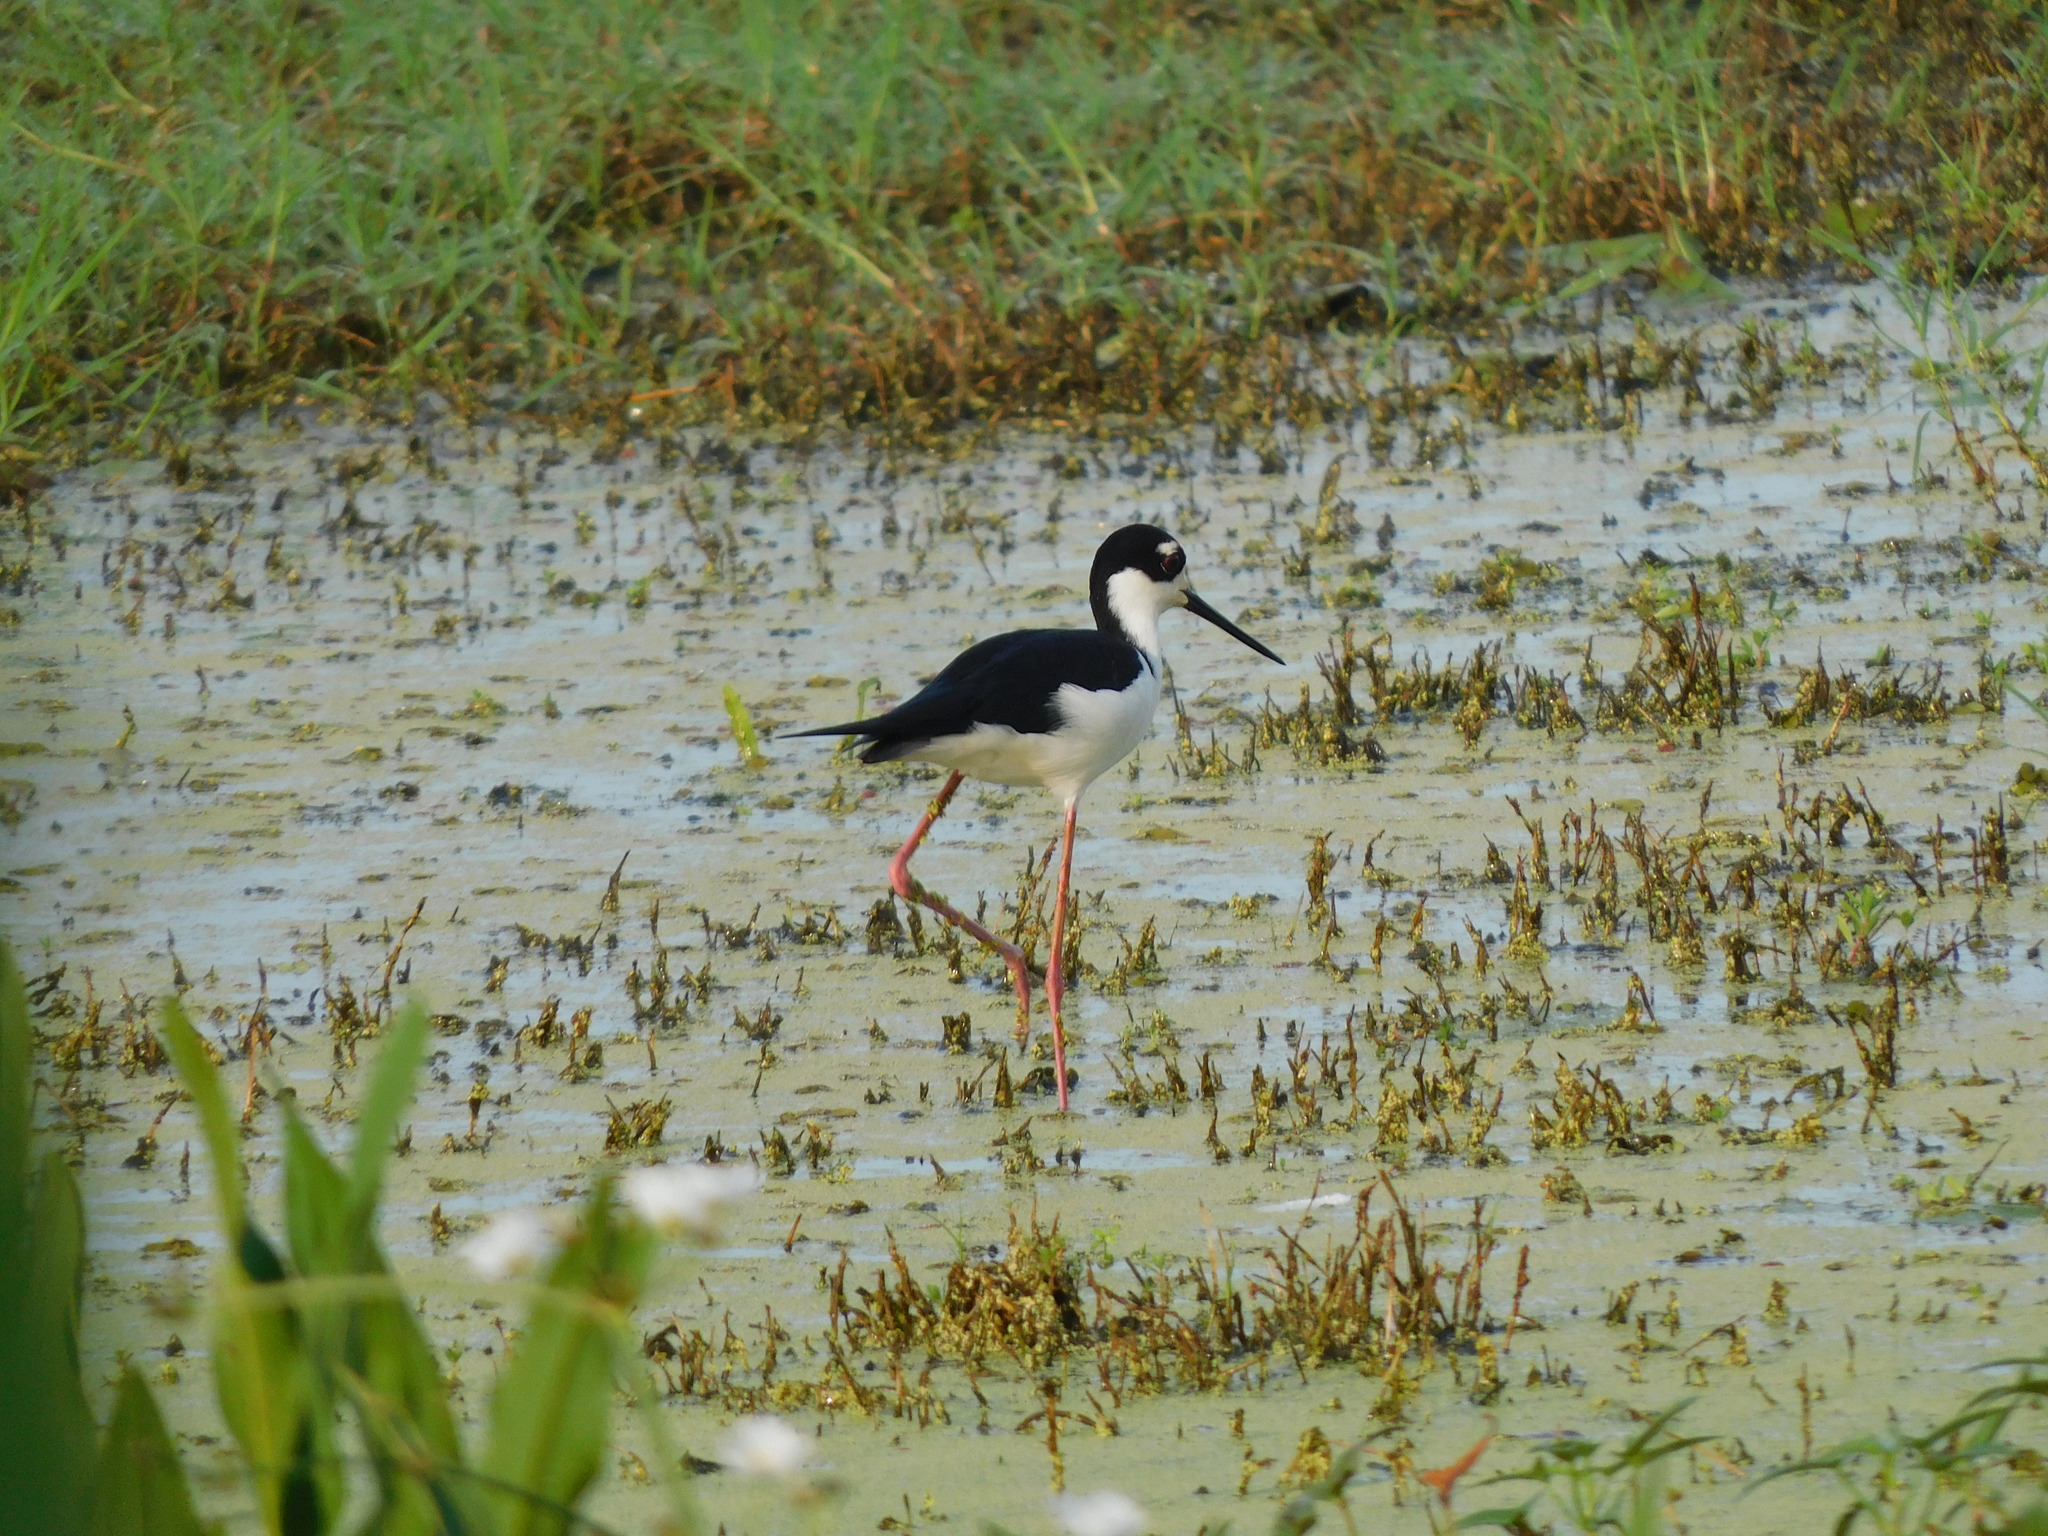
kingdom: Animalia
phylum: Chordata
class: Aves
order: Charadriiformes
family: Recurvirostridae
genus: Himantopus
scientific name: Himantopus mexicanus
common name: Black-necked stilt
